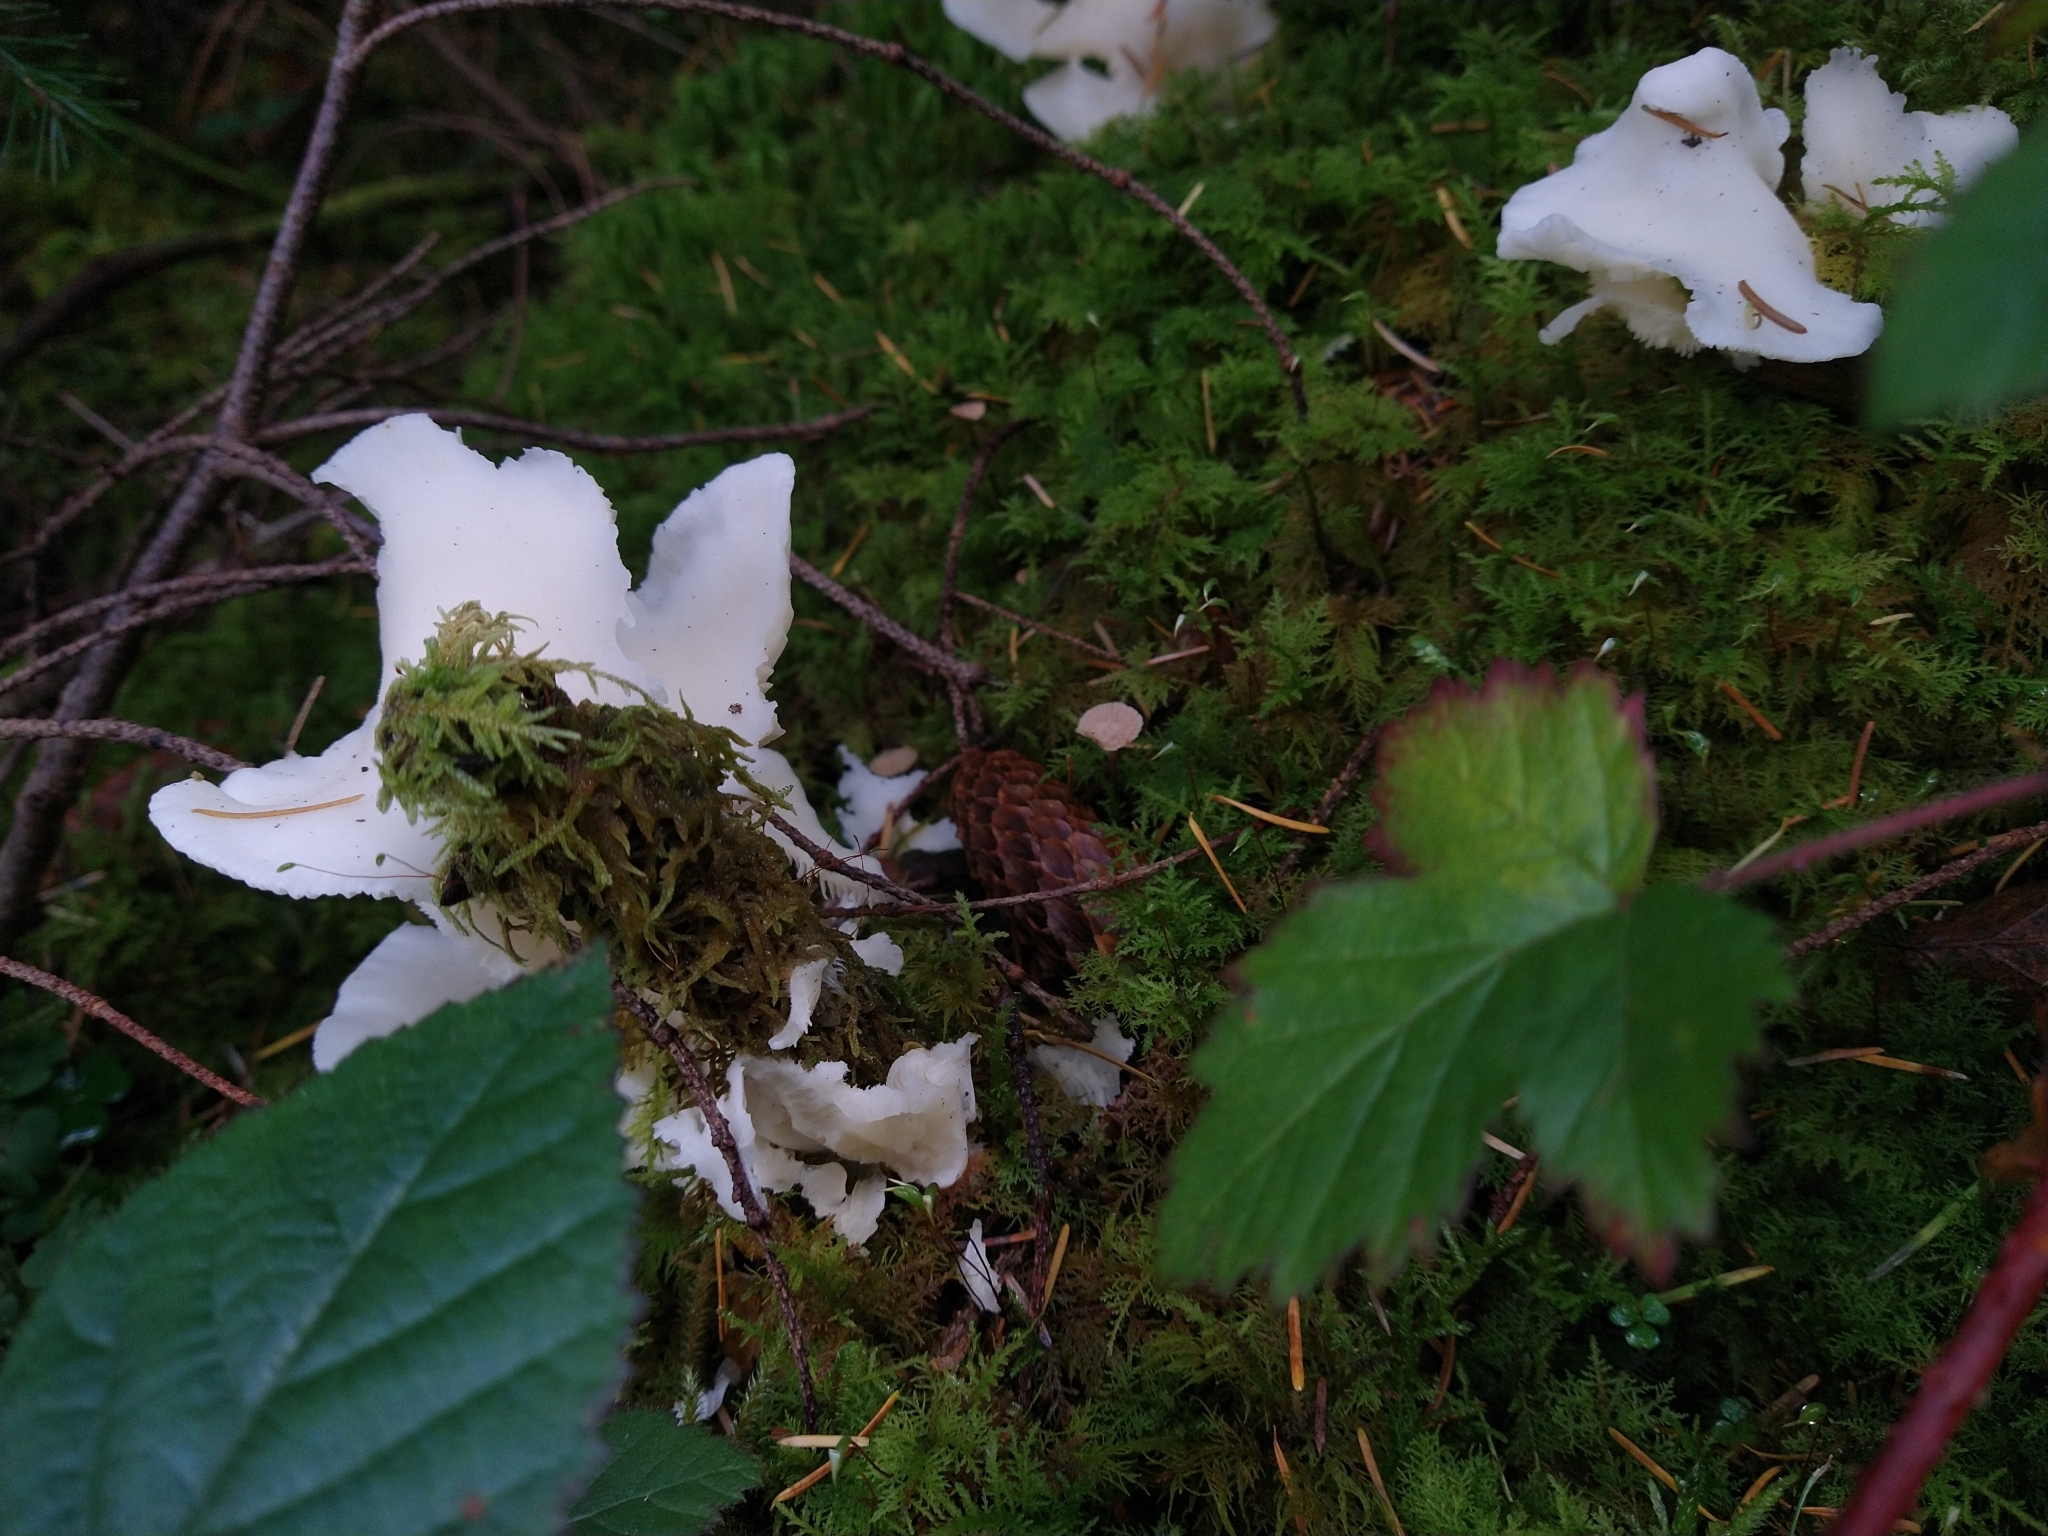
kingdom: Fungi
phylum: Basidiomycota
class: Agaricomycetes
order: Agaricales
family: Marasmiaceae
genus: Pleurocybella
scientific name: Pleurocybella porrigens
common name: Angel's wings
